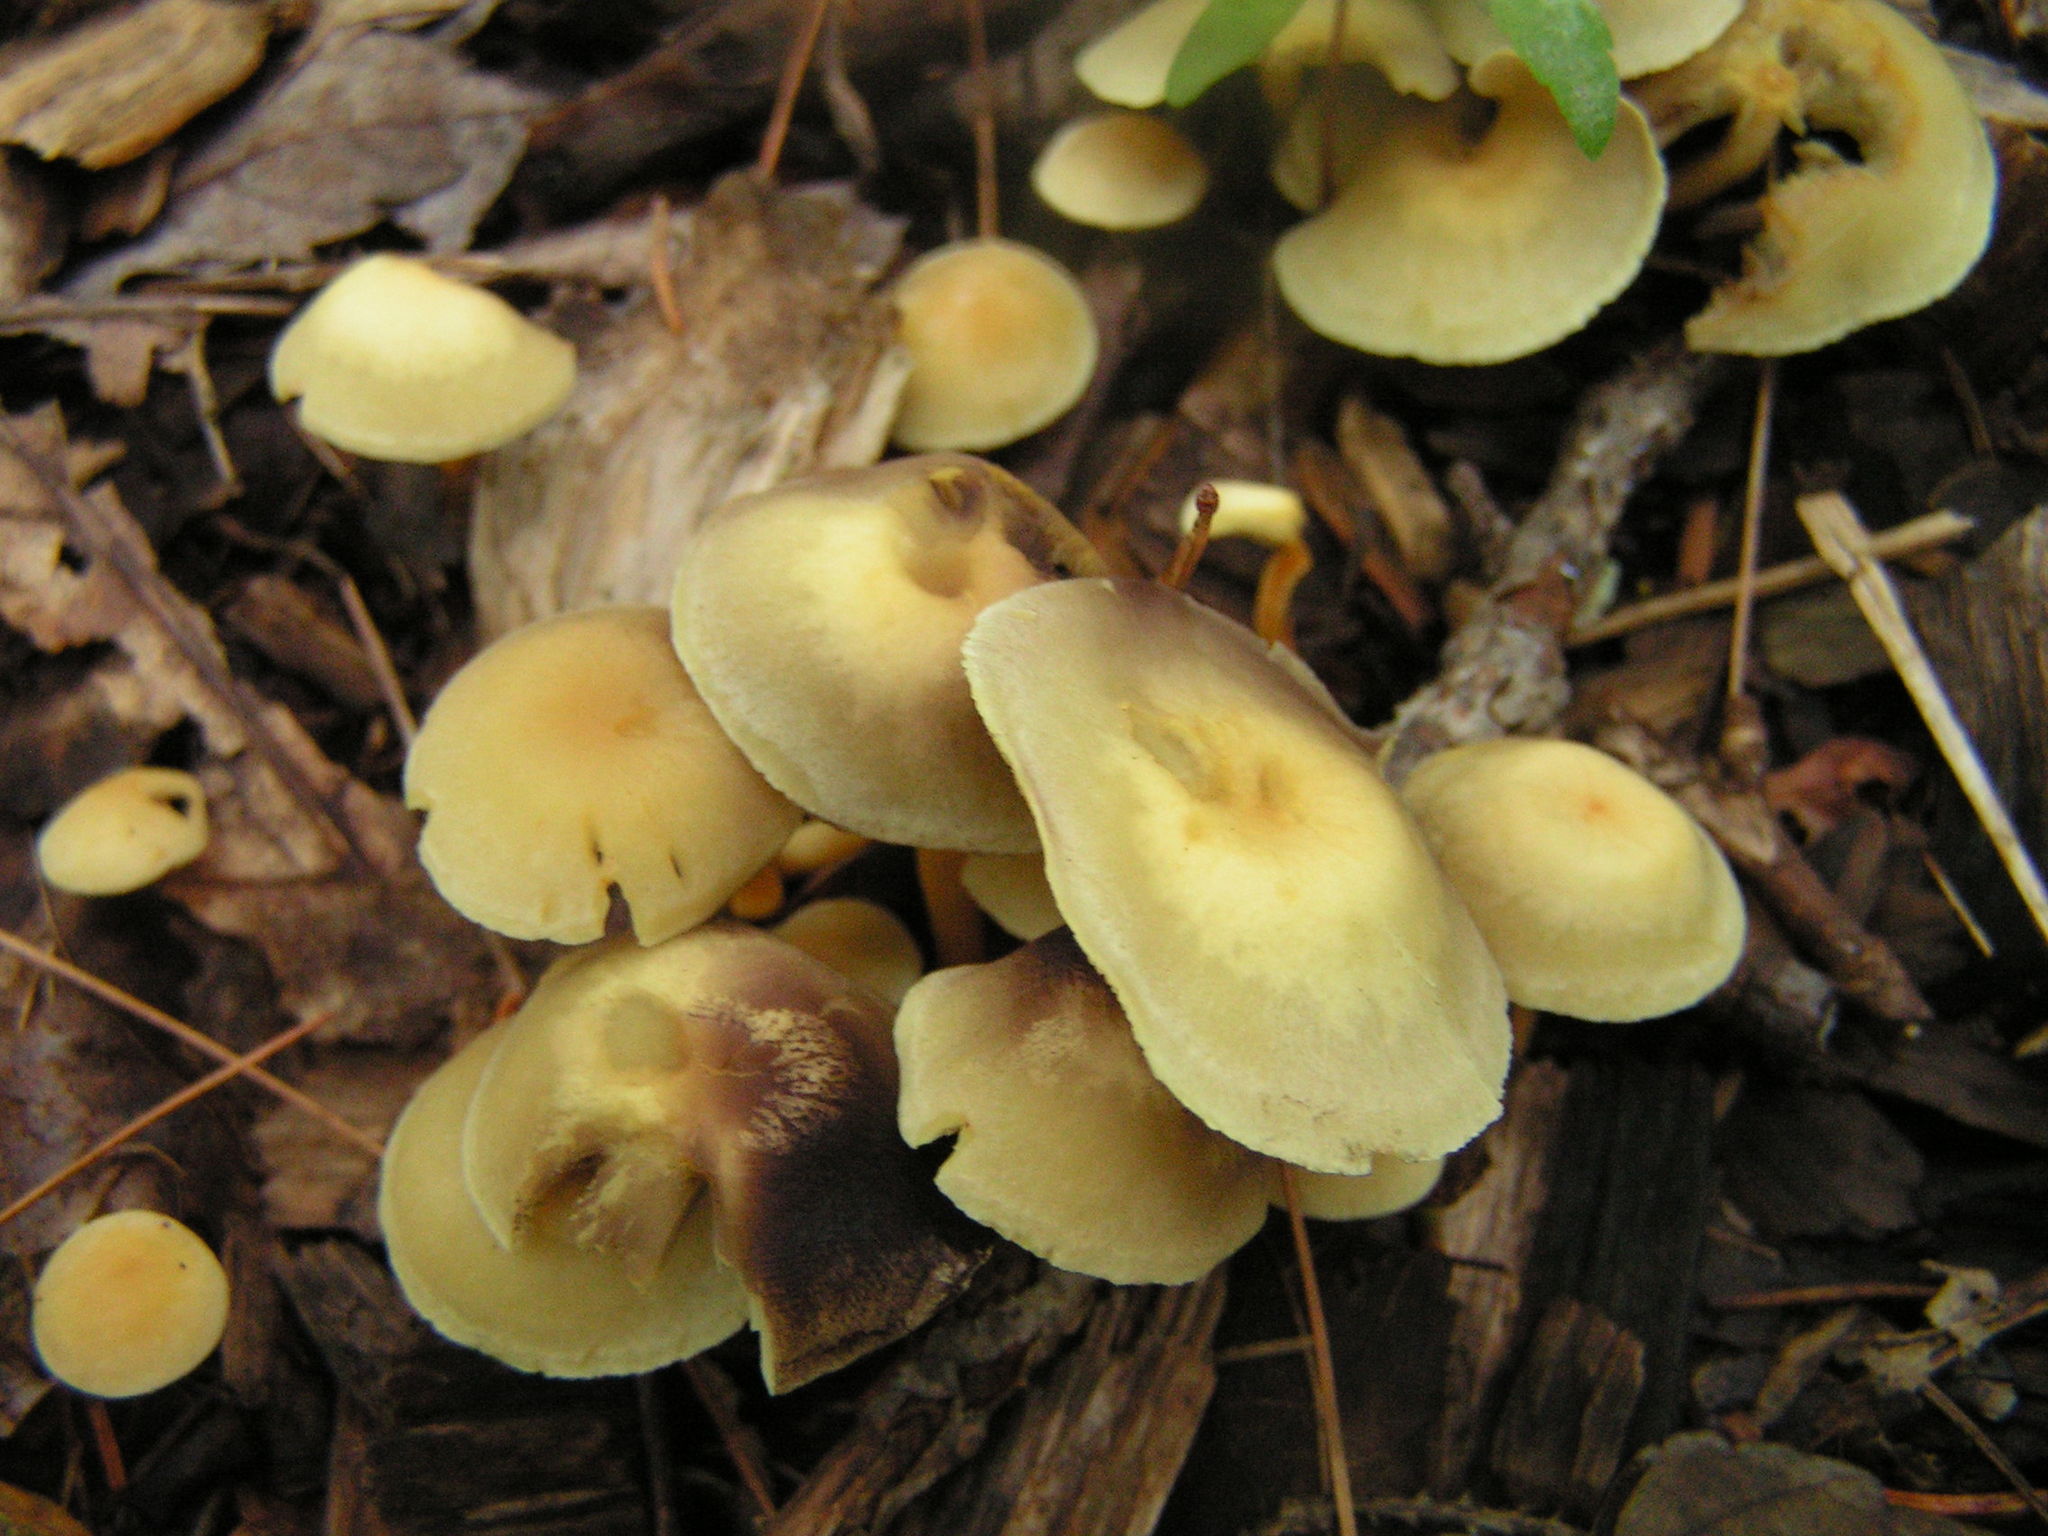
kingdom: Fungi
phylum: Basidiomycota
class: Agaricomycetes
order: Agaricales
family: Strophariaceae
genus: Hypholoma
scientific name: Hypholoma fasciculare
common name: Sulphur tuft
